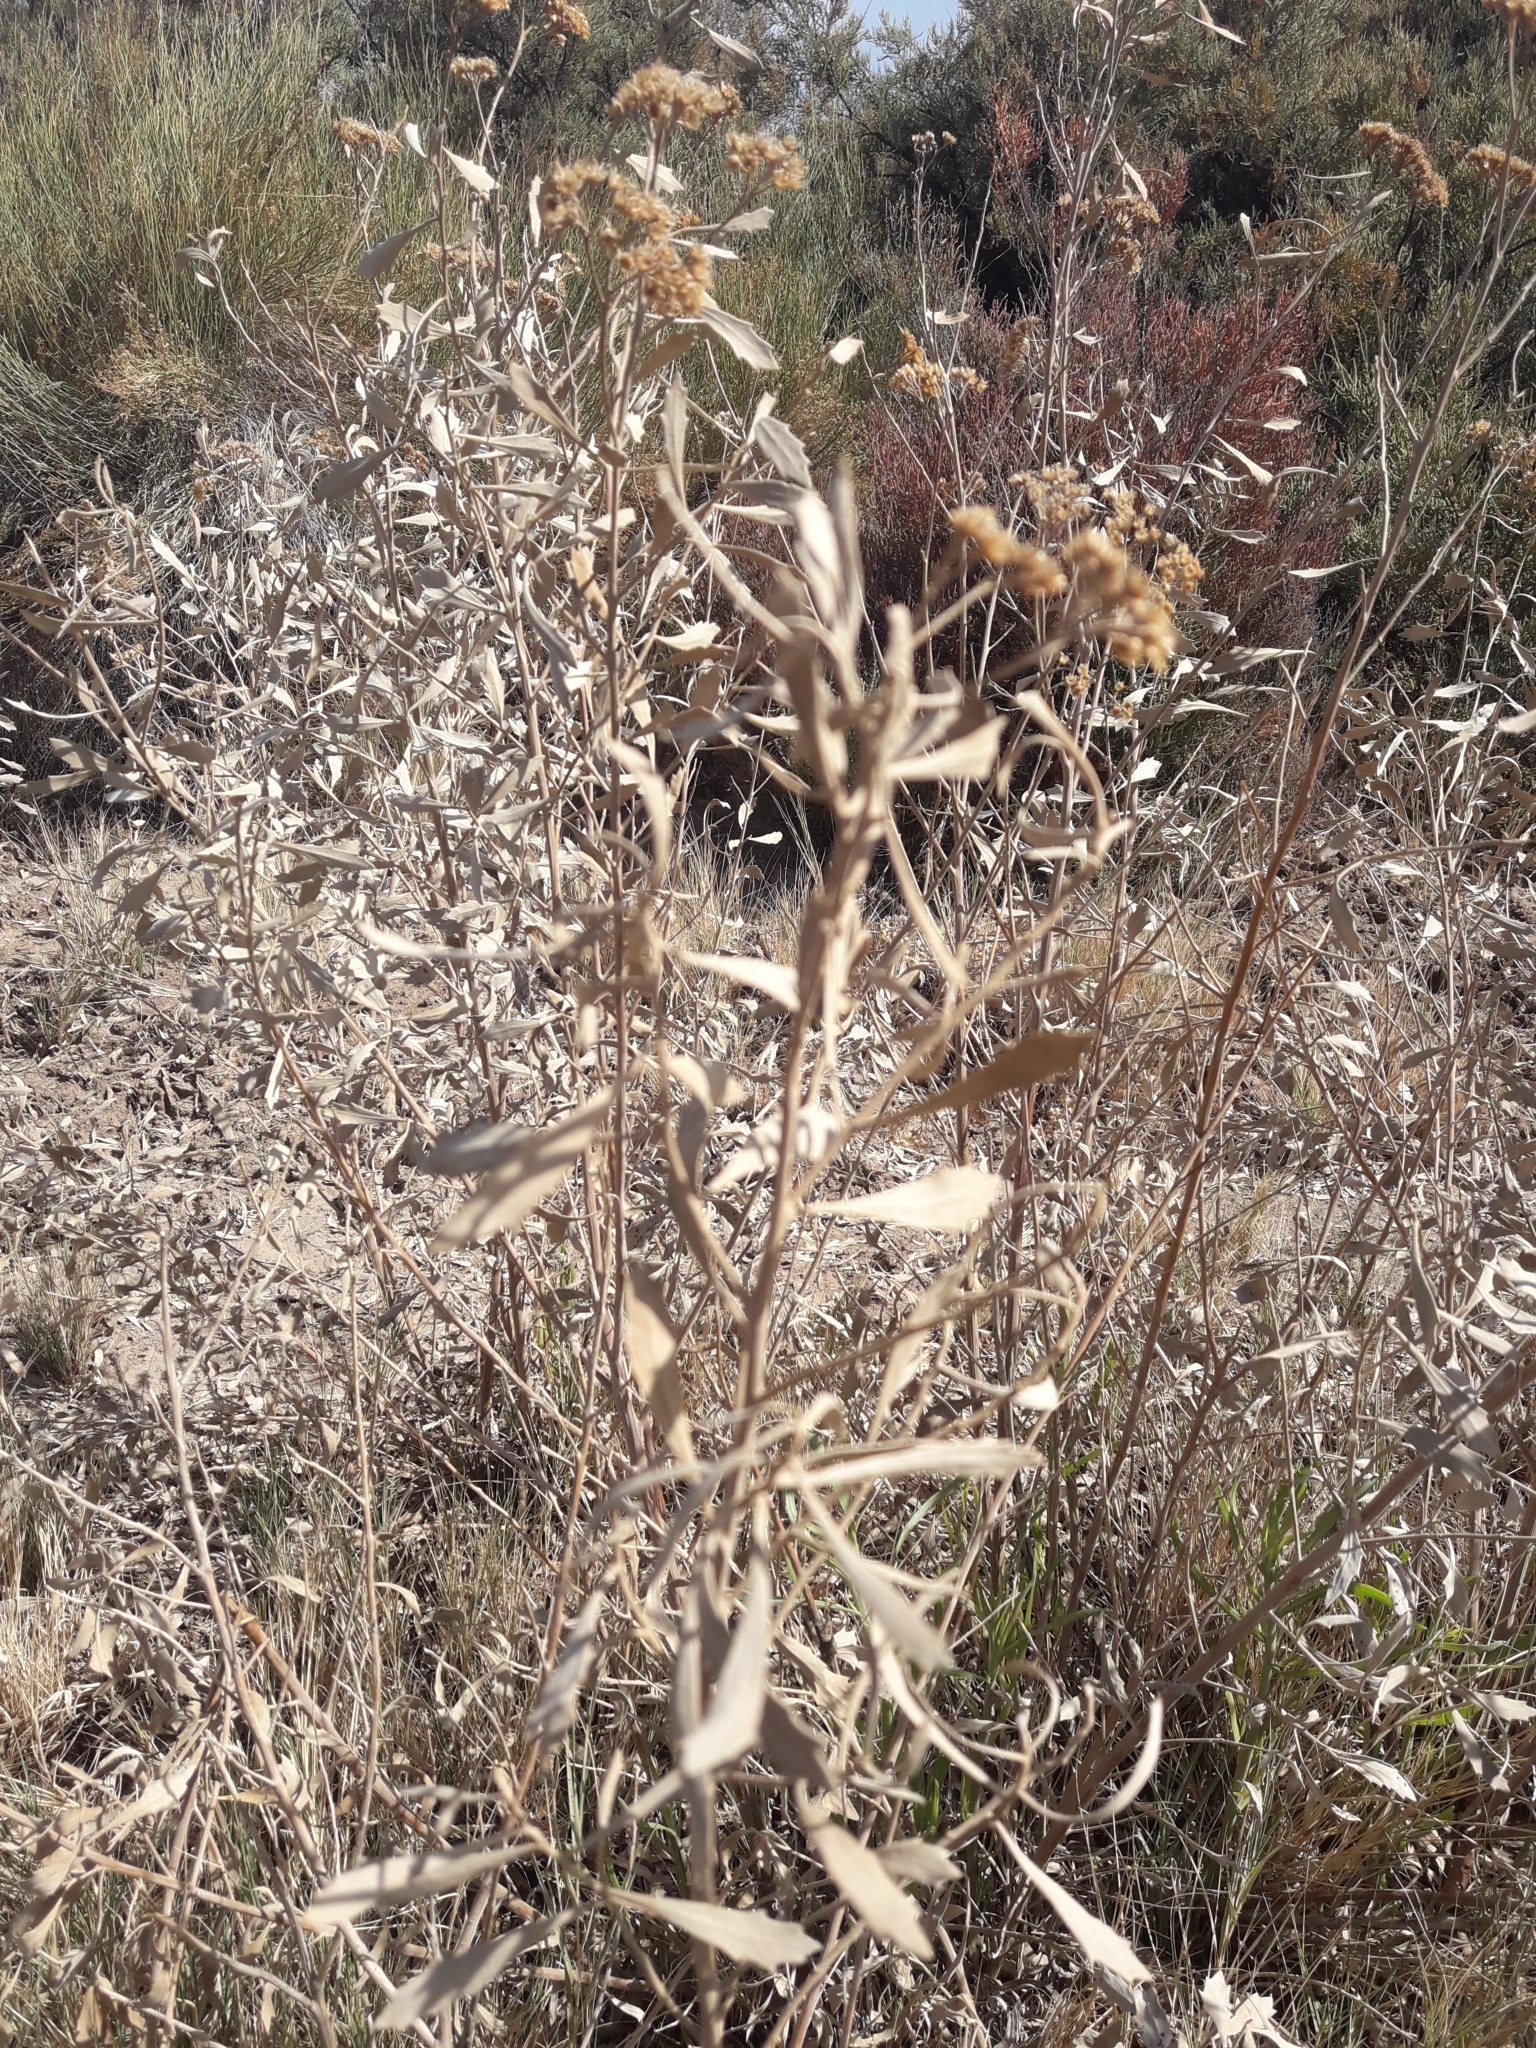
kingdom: Plantae
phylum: Tracheophyta
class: Magnoliopsida
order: Asterales
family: Asteraceae
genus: Tessaria
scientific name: Tessaria absinthioides
